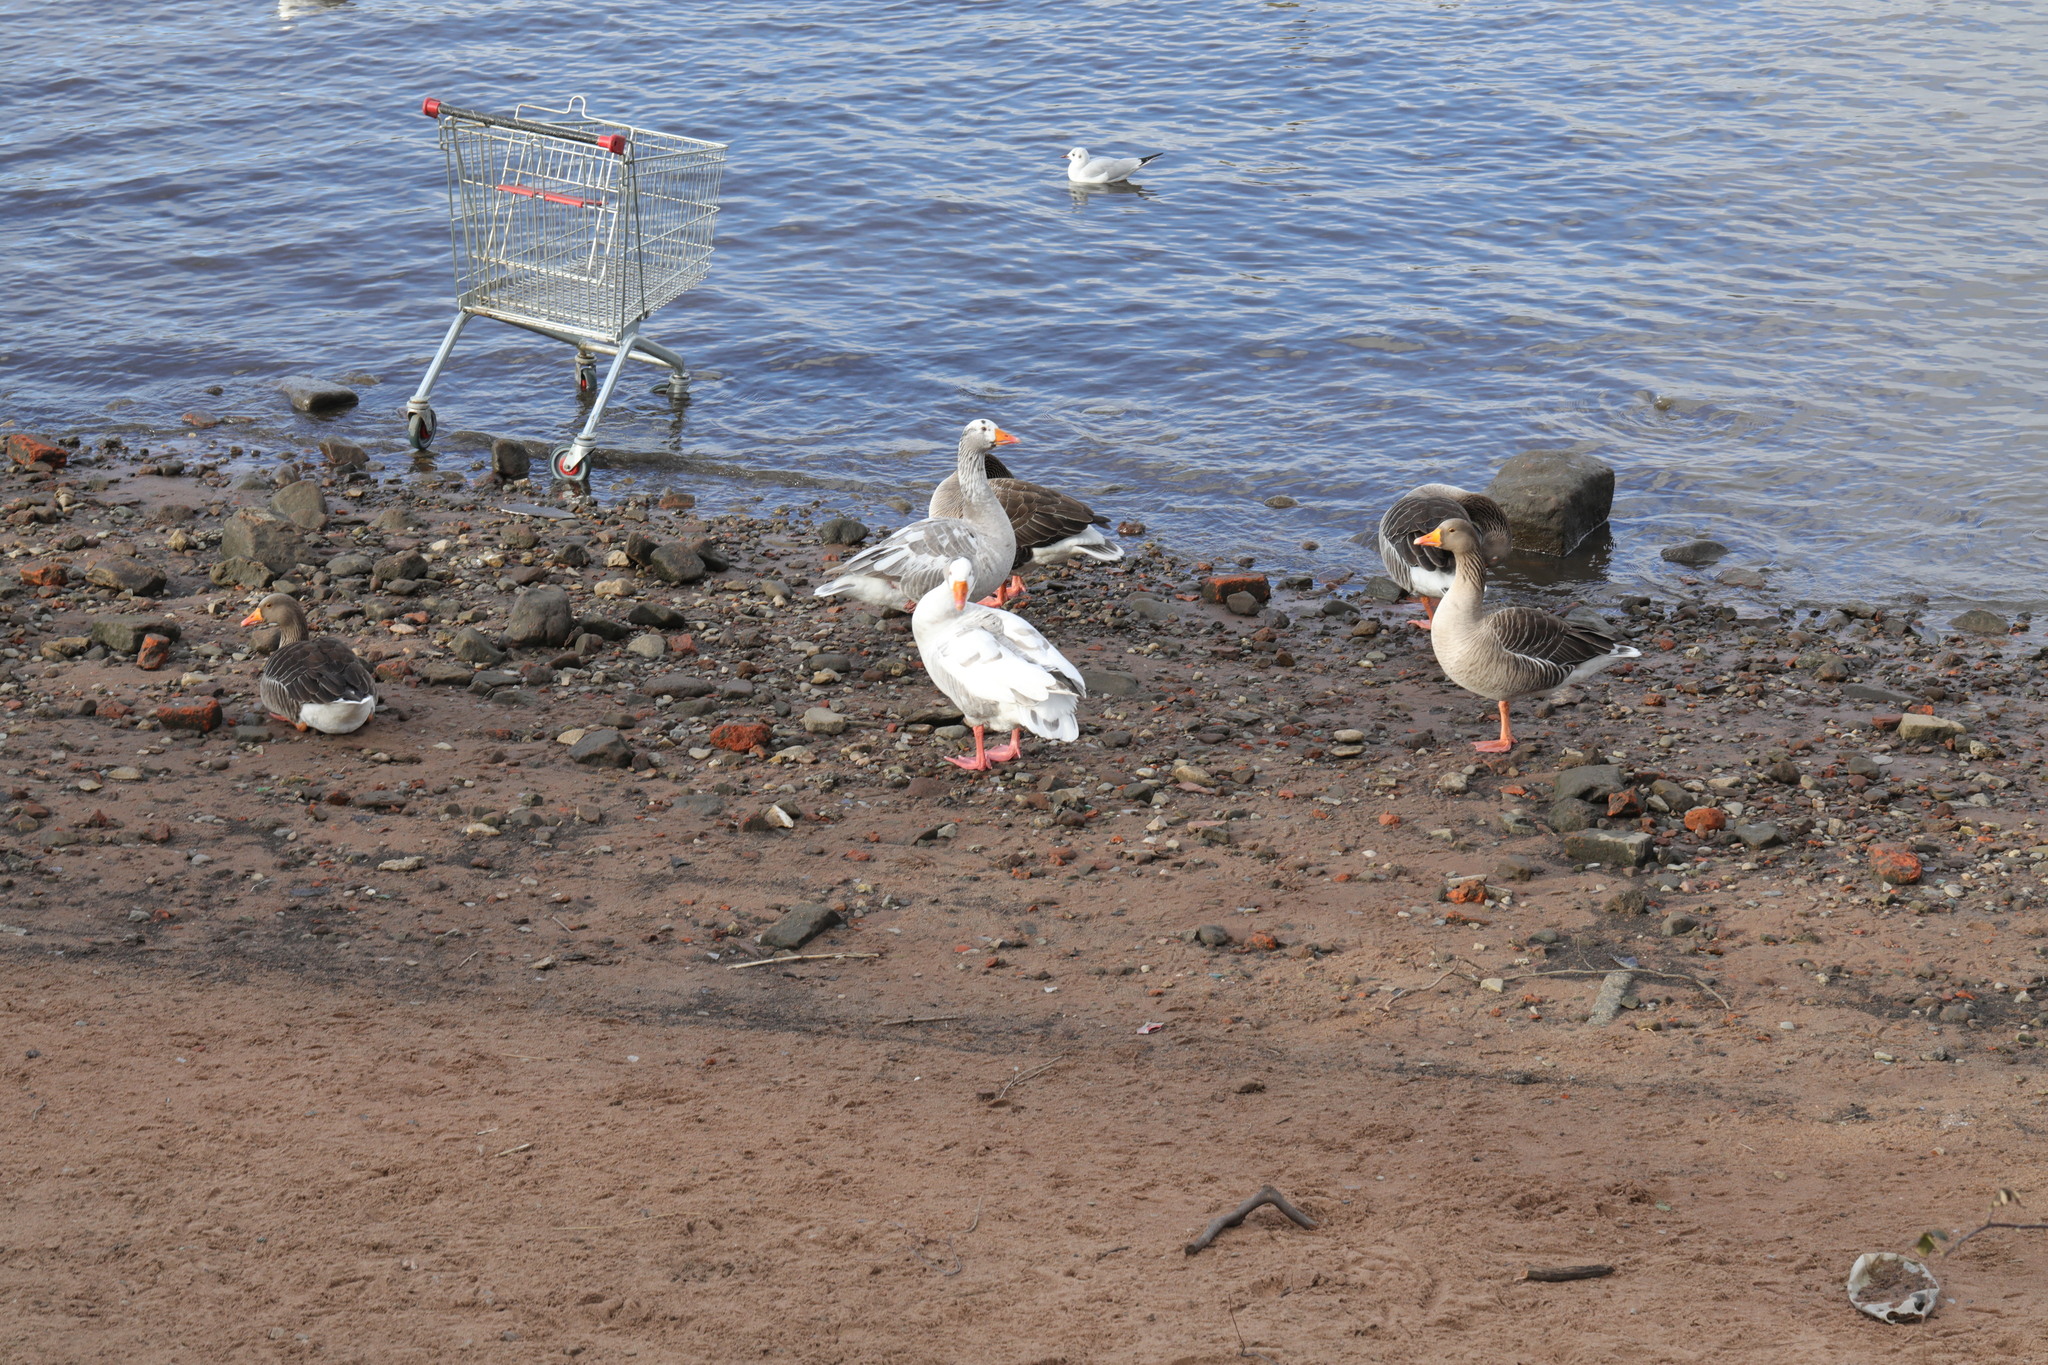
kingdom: Animalia
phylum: Chordata
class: Aves
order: Anseriformes
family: Anatidae
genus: Anser
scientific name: Anser anser
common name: Greylag goose
